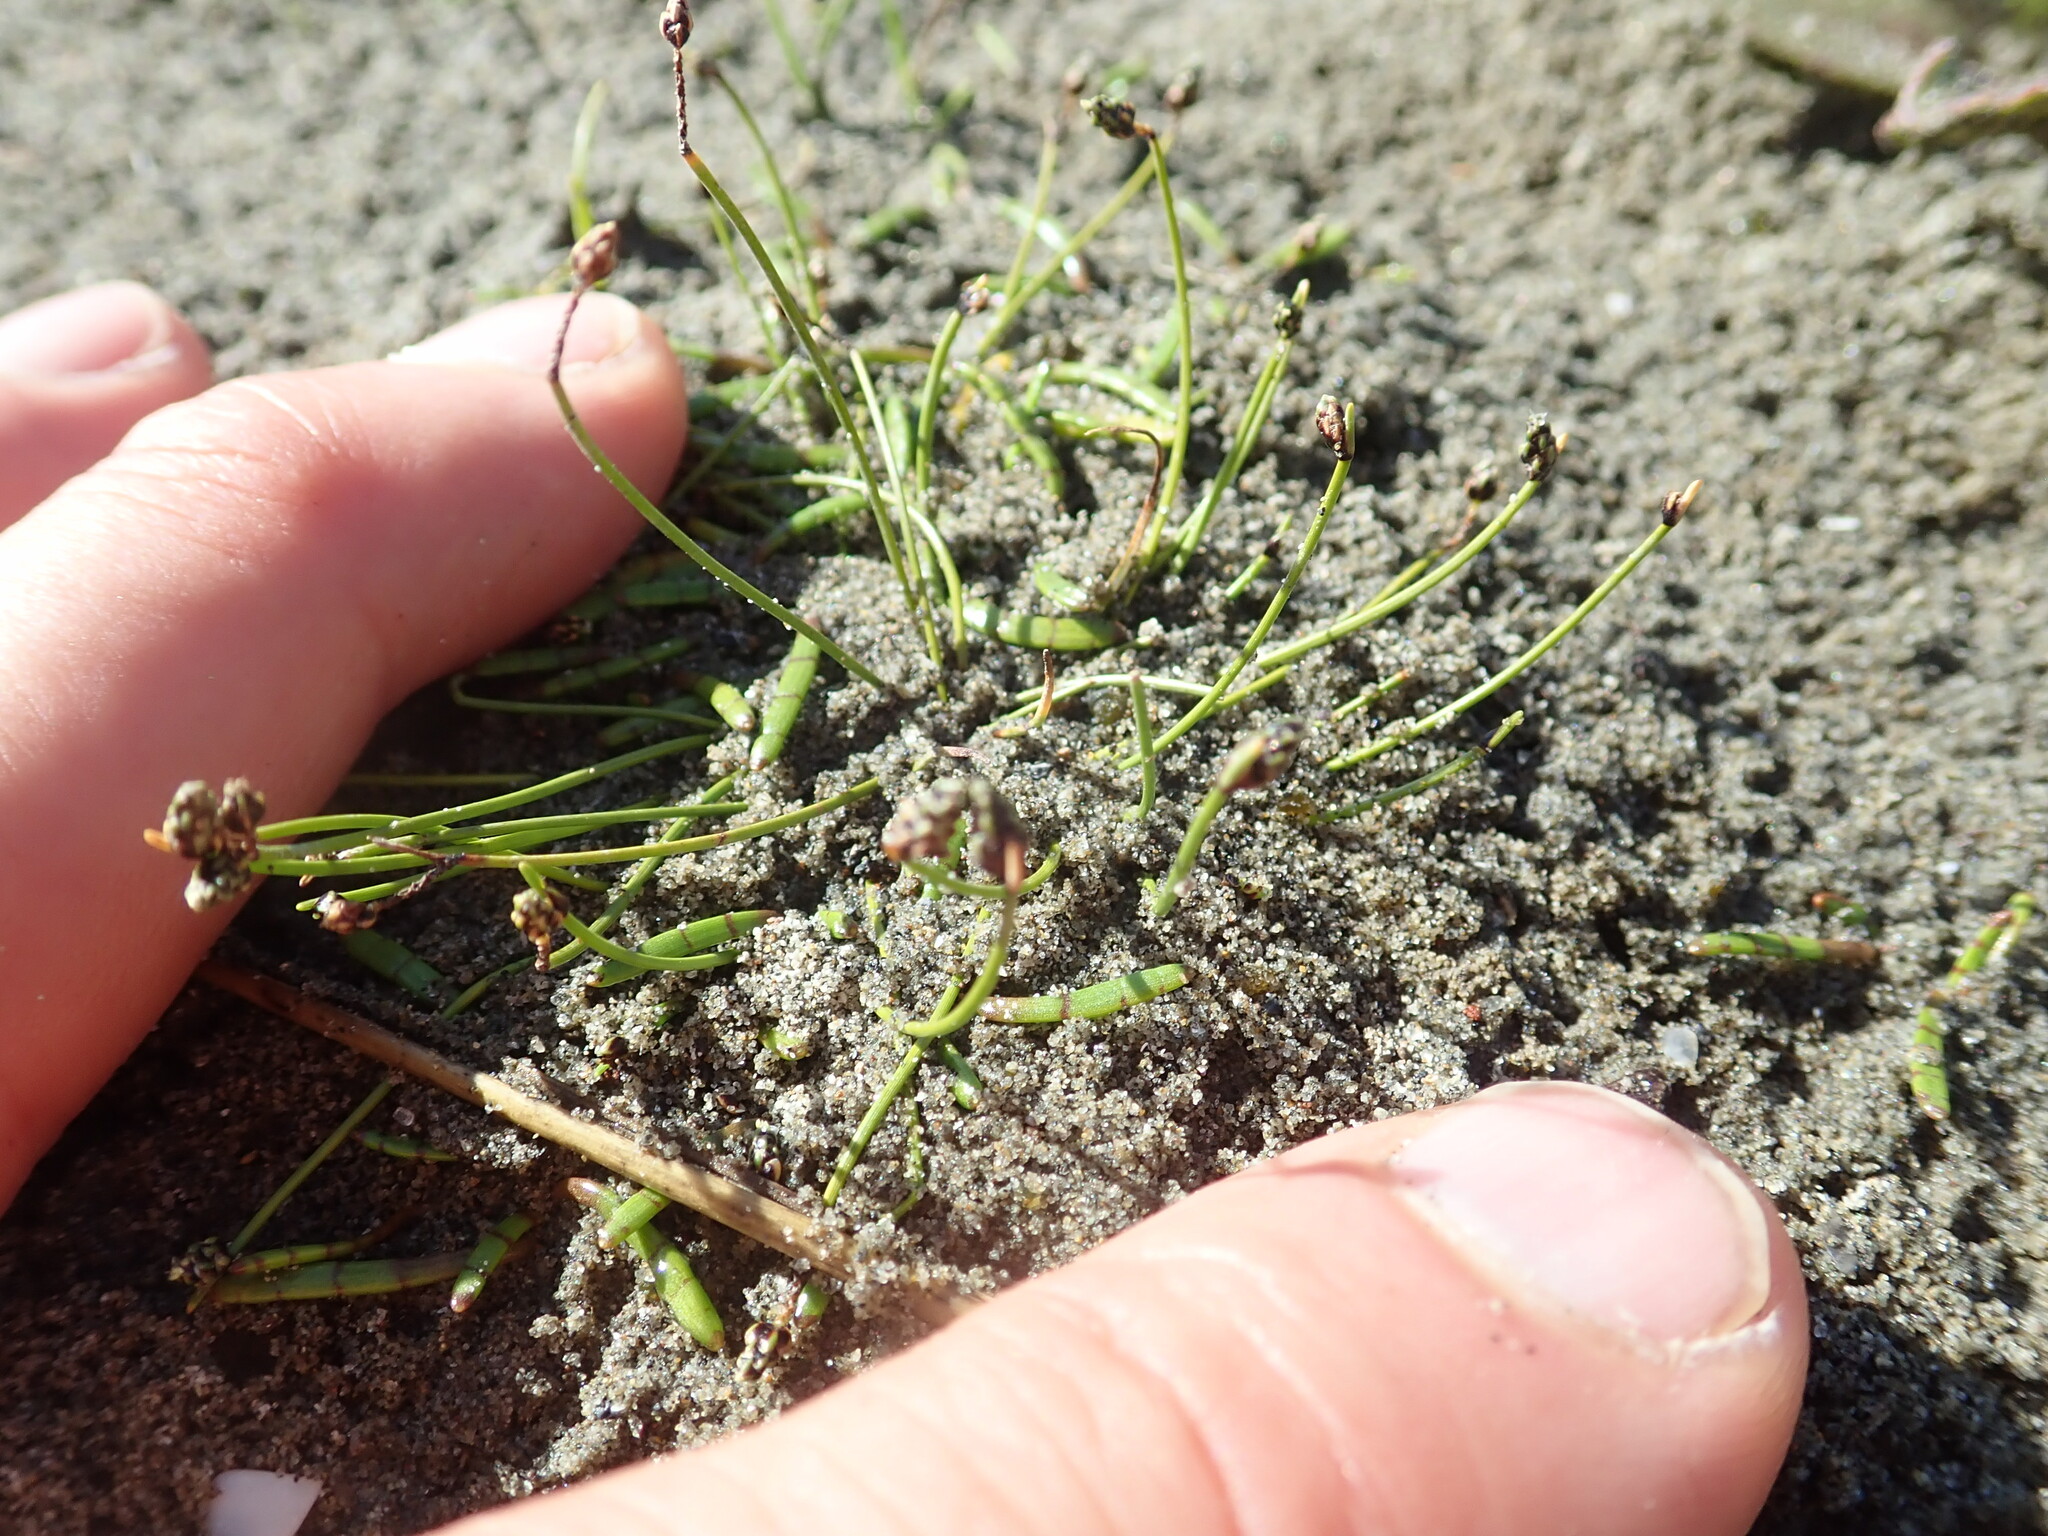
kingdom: Plantae
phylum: Tracheophyta
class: Liliopsida
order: Poales
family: Cyperaceae
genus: Isolepis
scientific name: Isolepis cernua
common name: Slender club-rush
